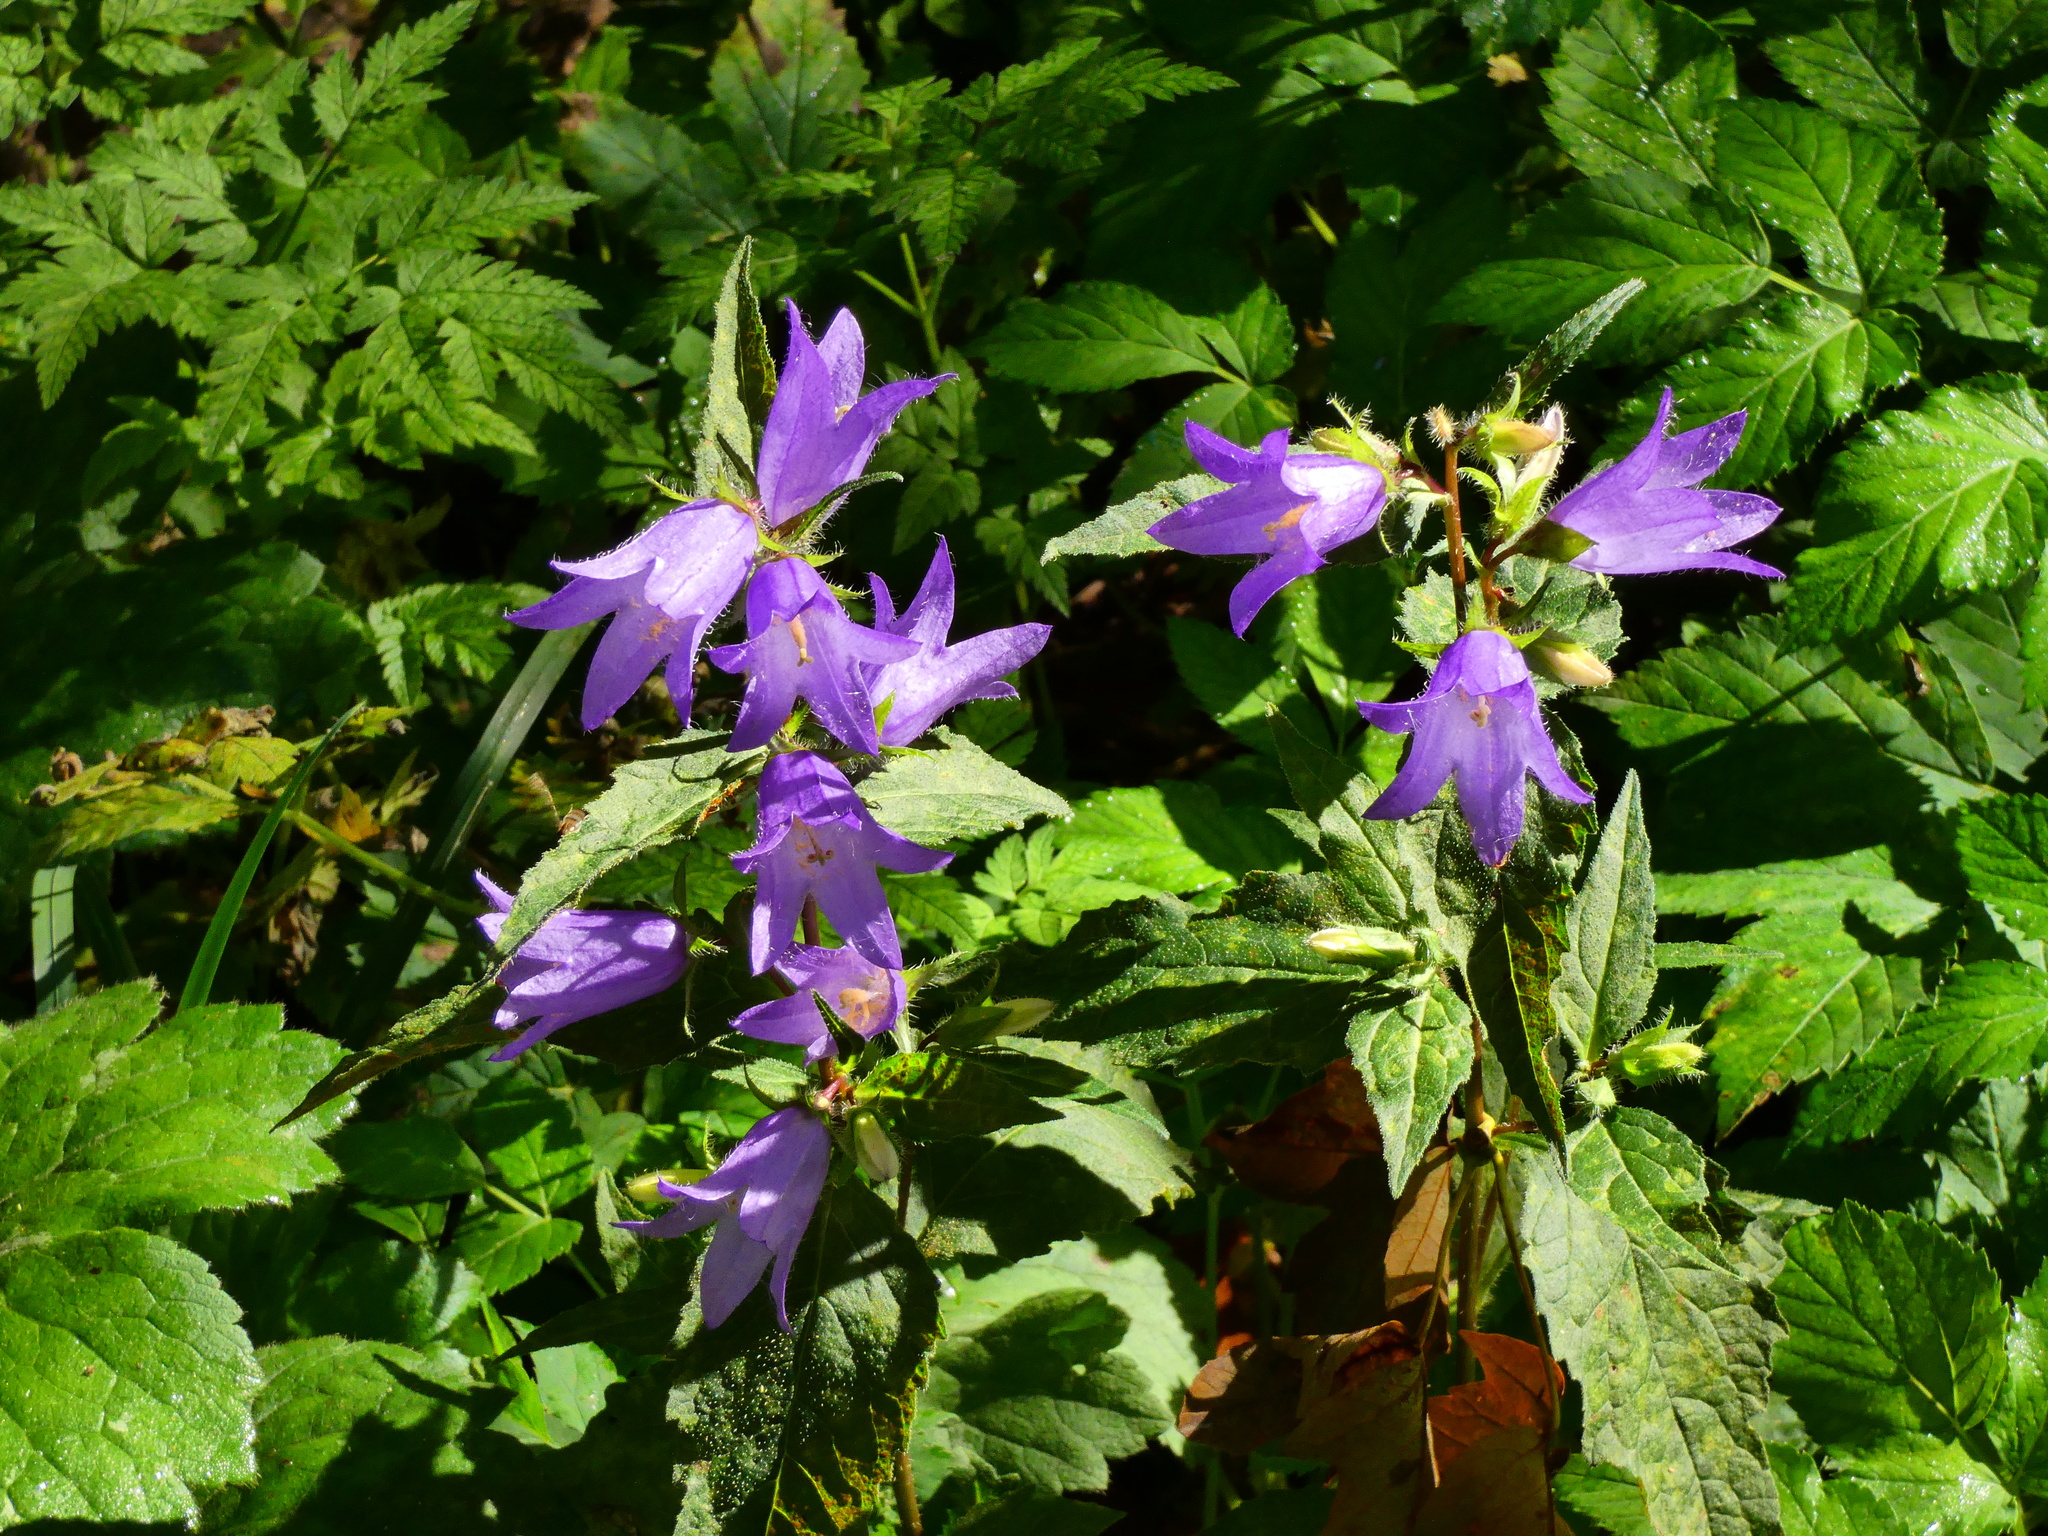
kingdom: Plantae
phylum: Tracheophyta
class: Magnoliopsida
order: Asterales
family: Campanulaceae
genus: Campanula
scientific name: Campanula trachelium
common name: Nettle-leaved bellflower
